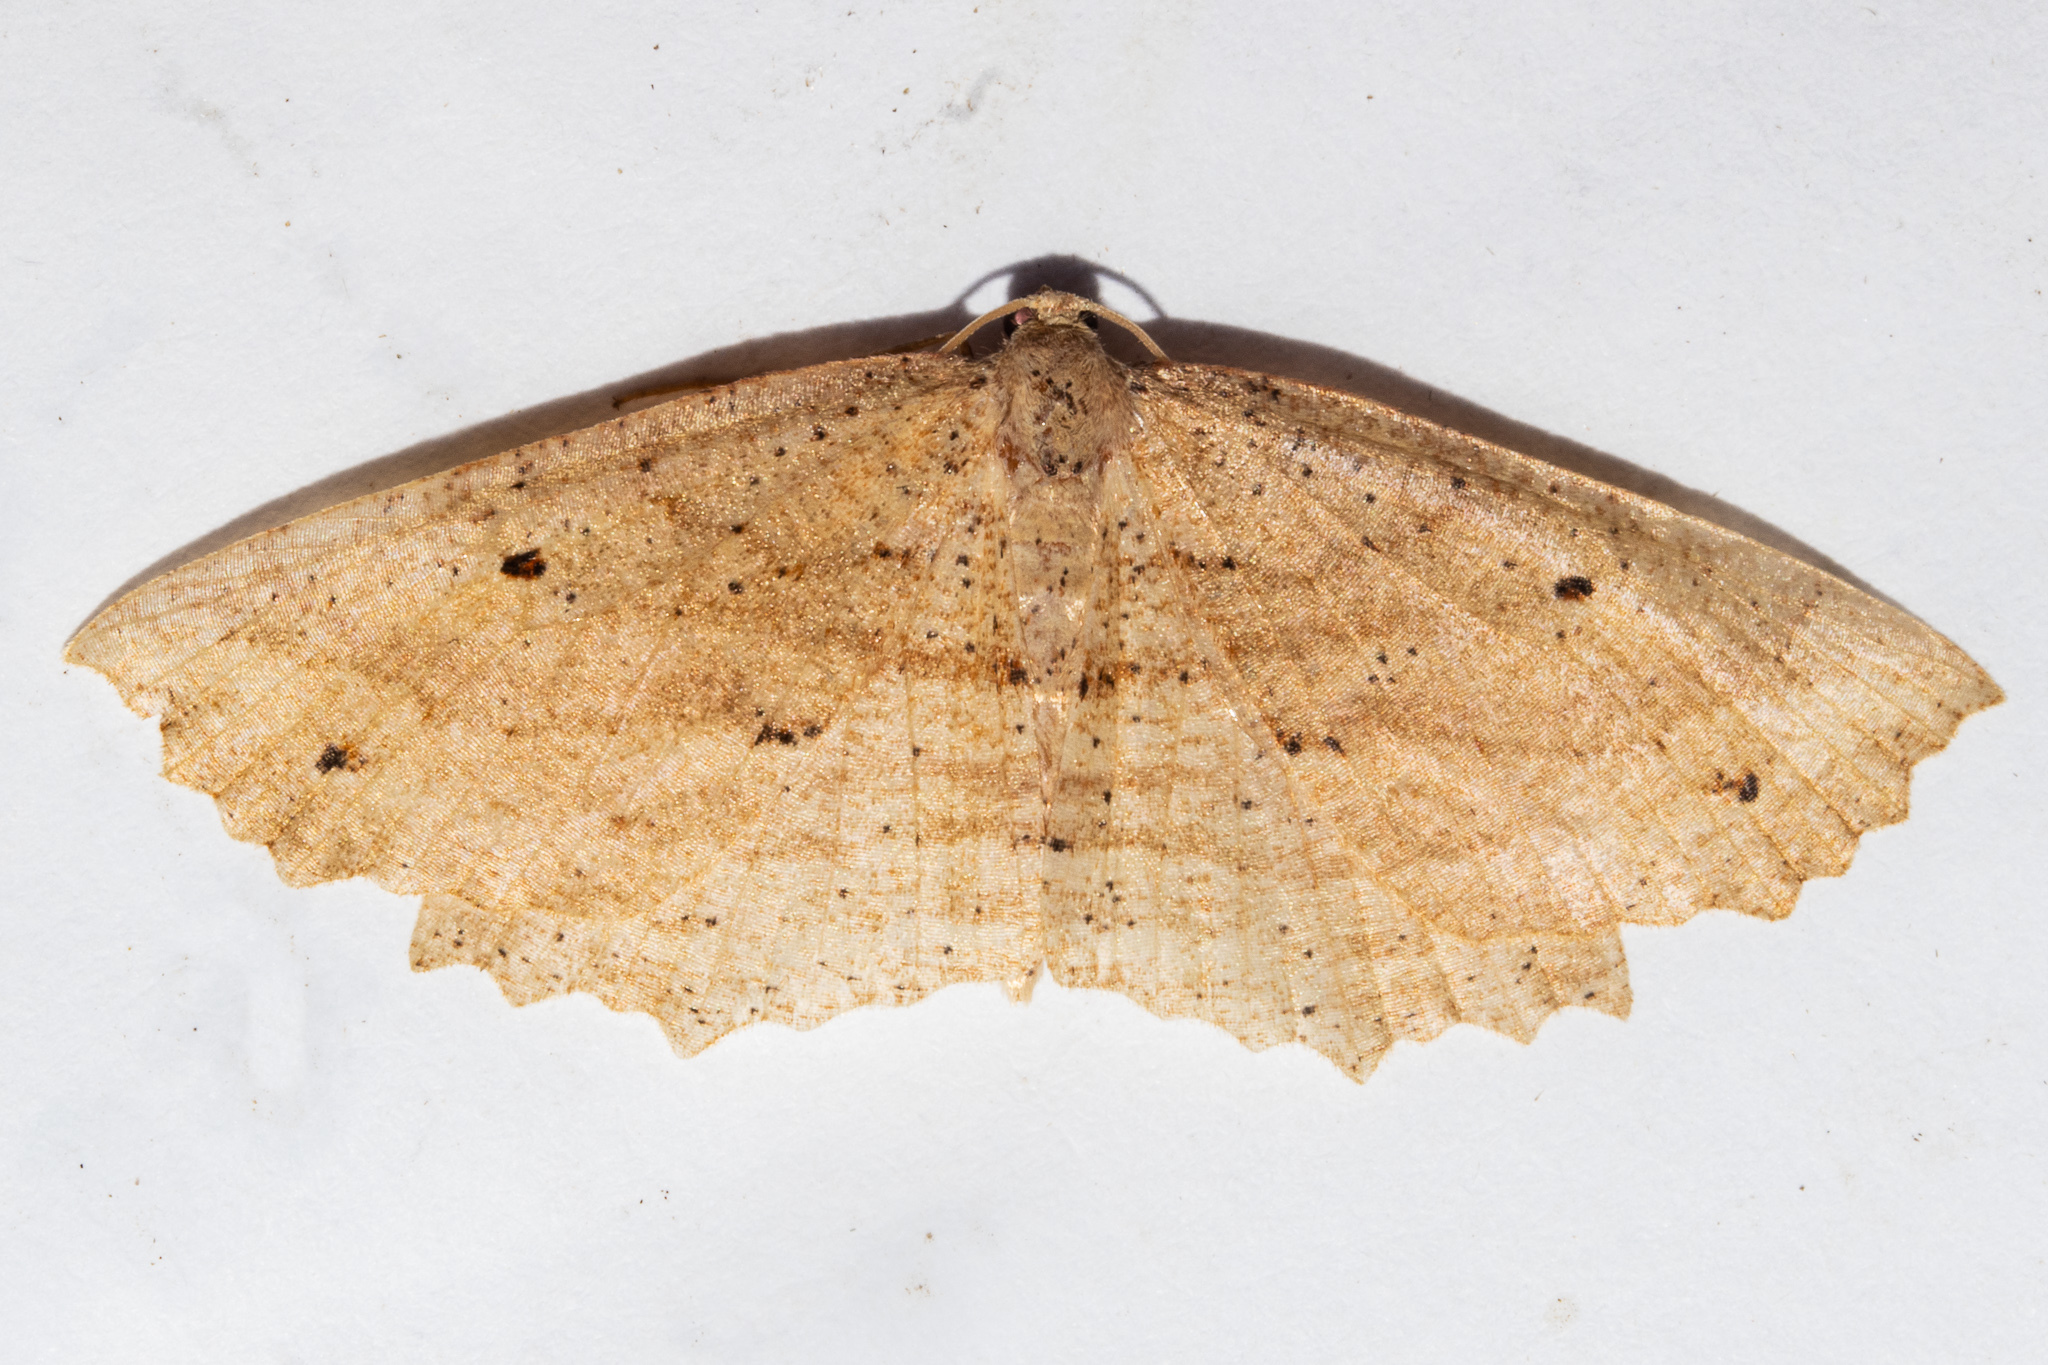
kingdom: Animalia
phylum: Arthropoda
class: Insecta
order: Lepidoptera
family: Geometridae
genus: Xyridacma
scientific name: Xyridacma veronicae
